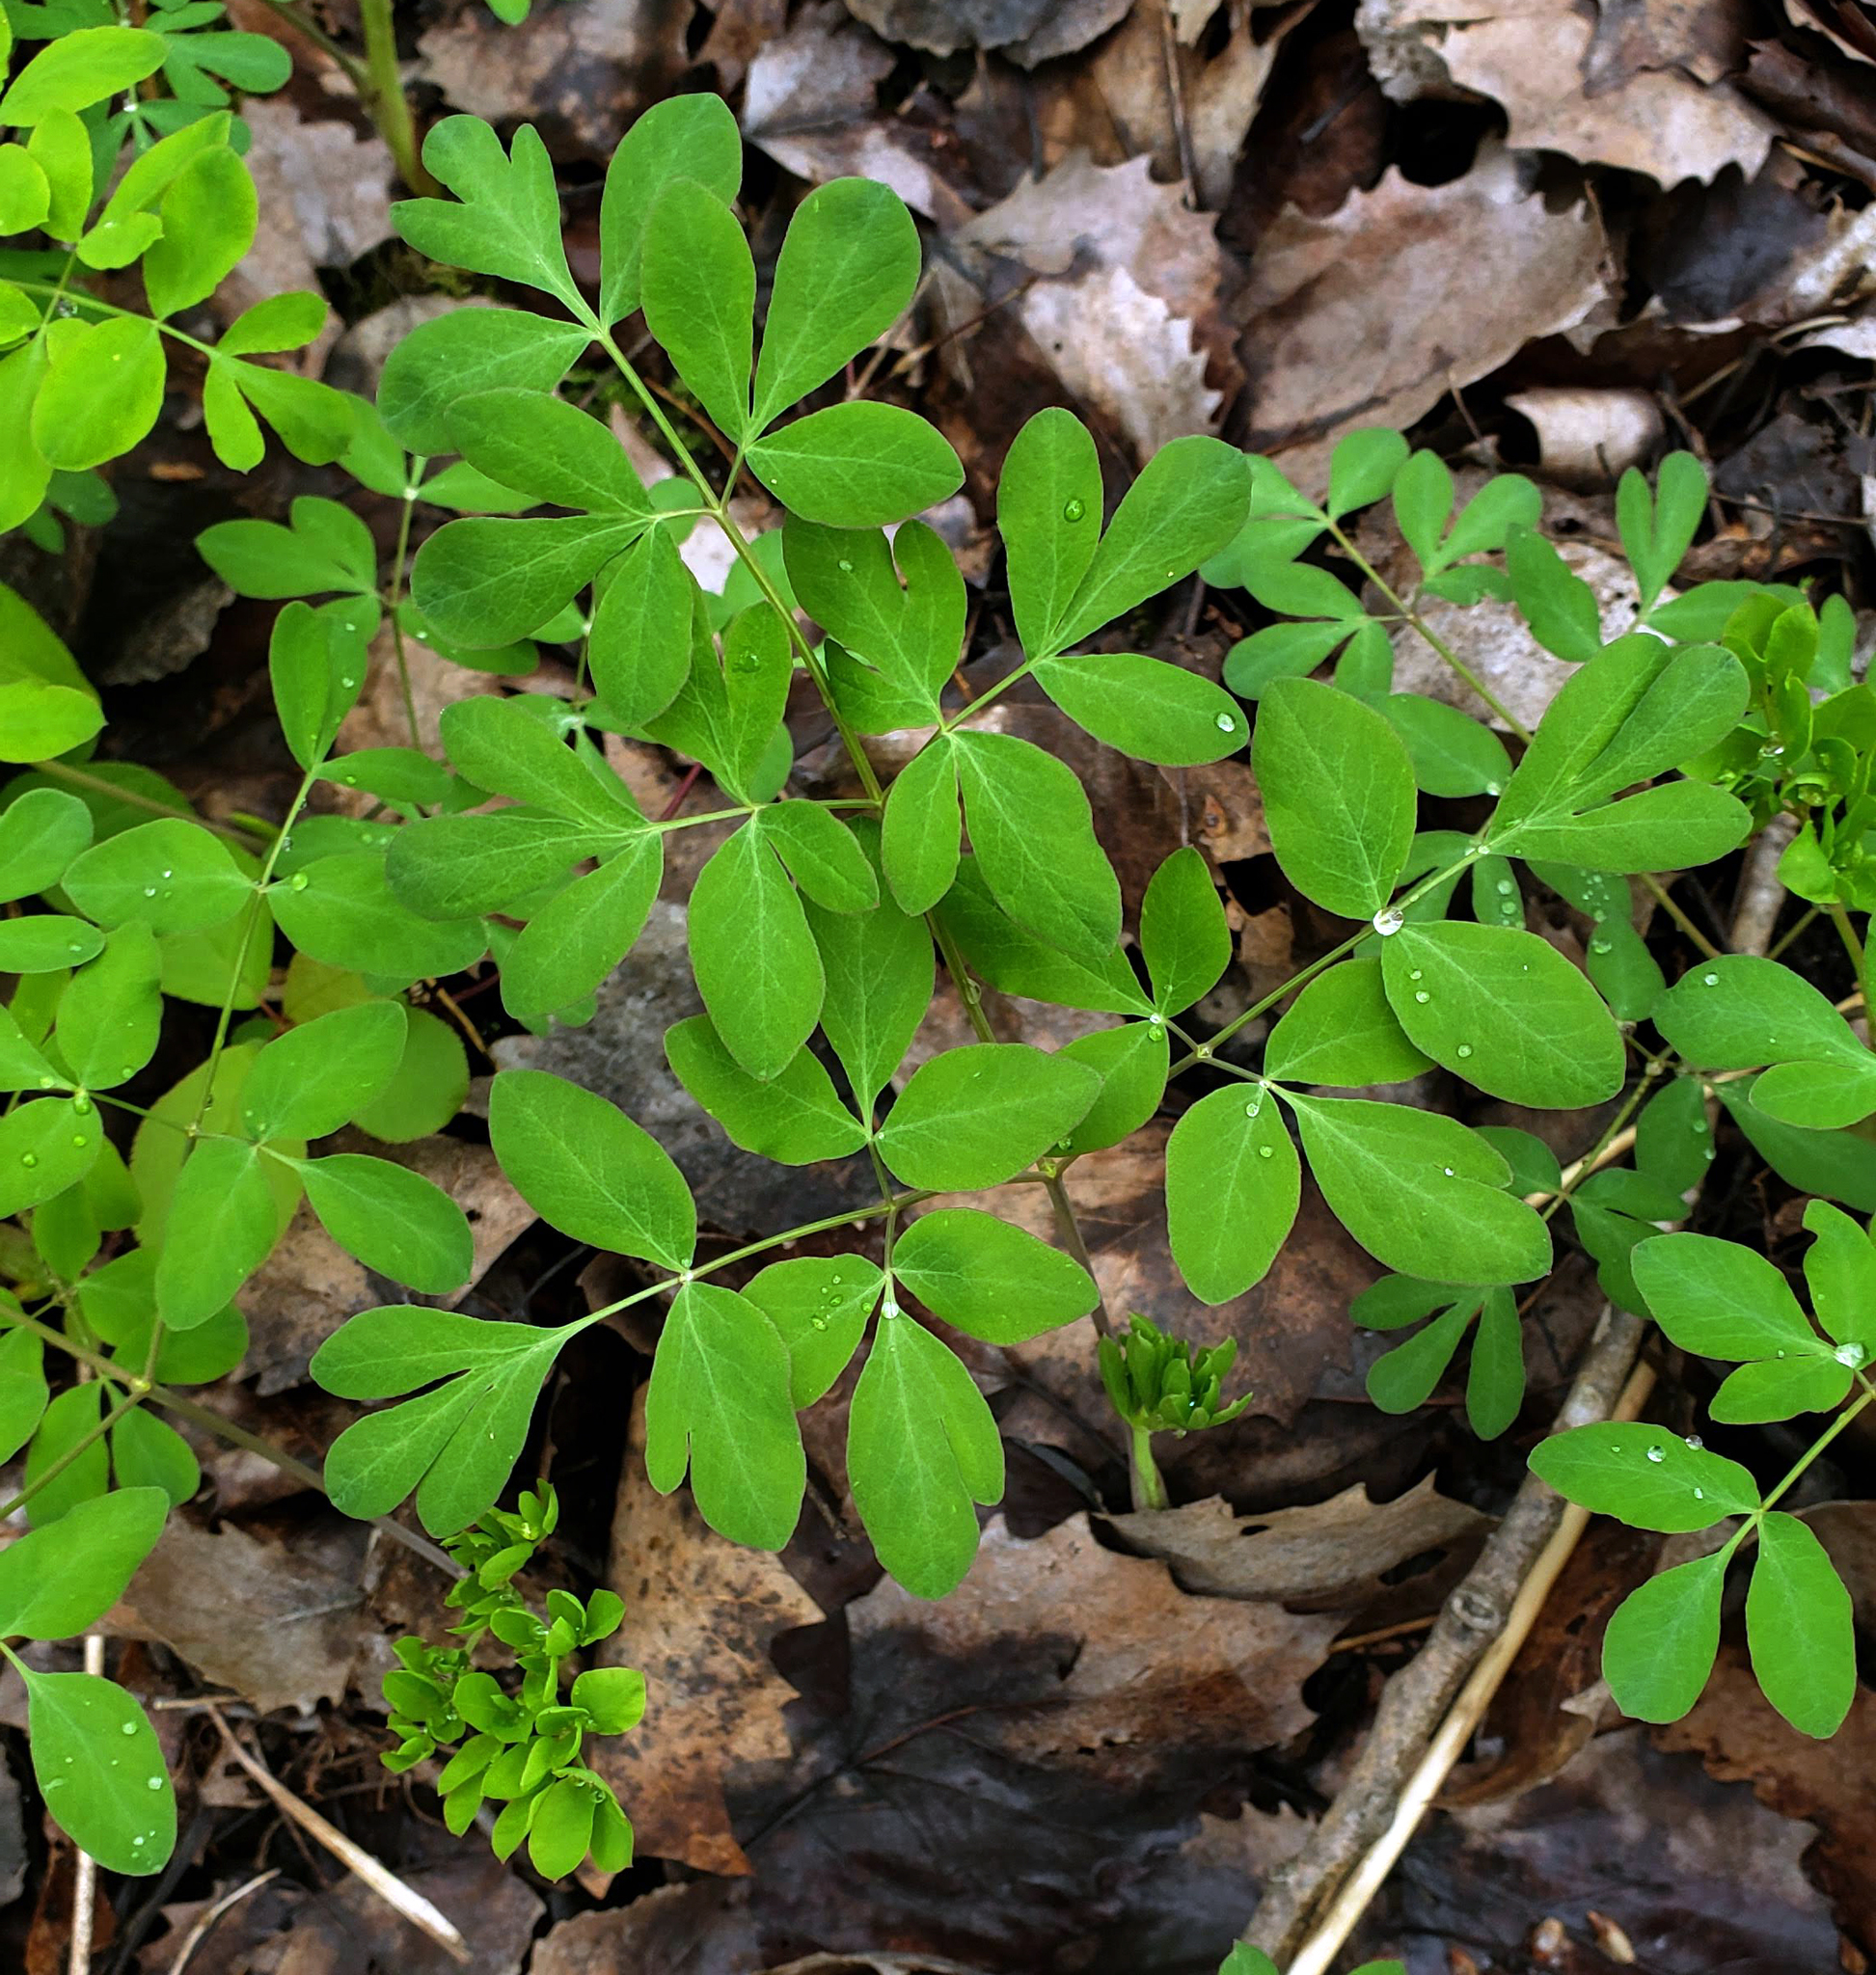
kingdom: Plantae
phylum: Tracheophyta
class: Magnoliopsida
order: Apiales
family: Apiaceae
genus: Taenidia
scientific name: Taenidia integerrima
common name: Golden alexander
